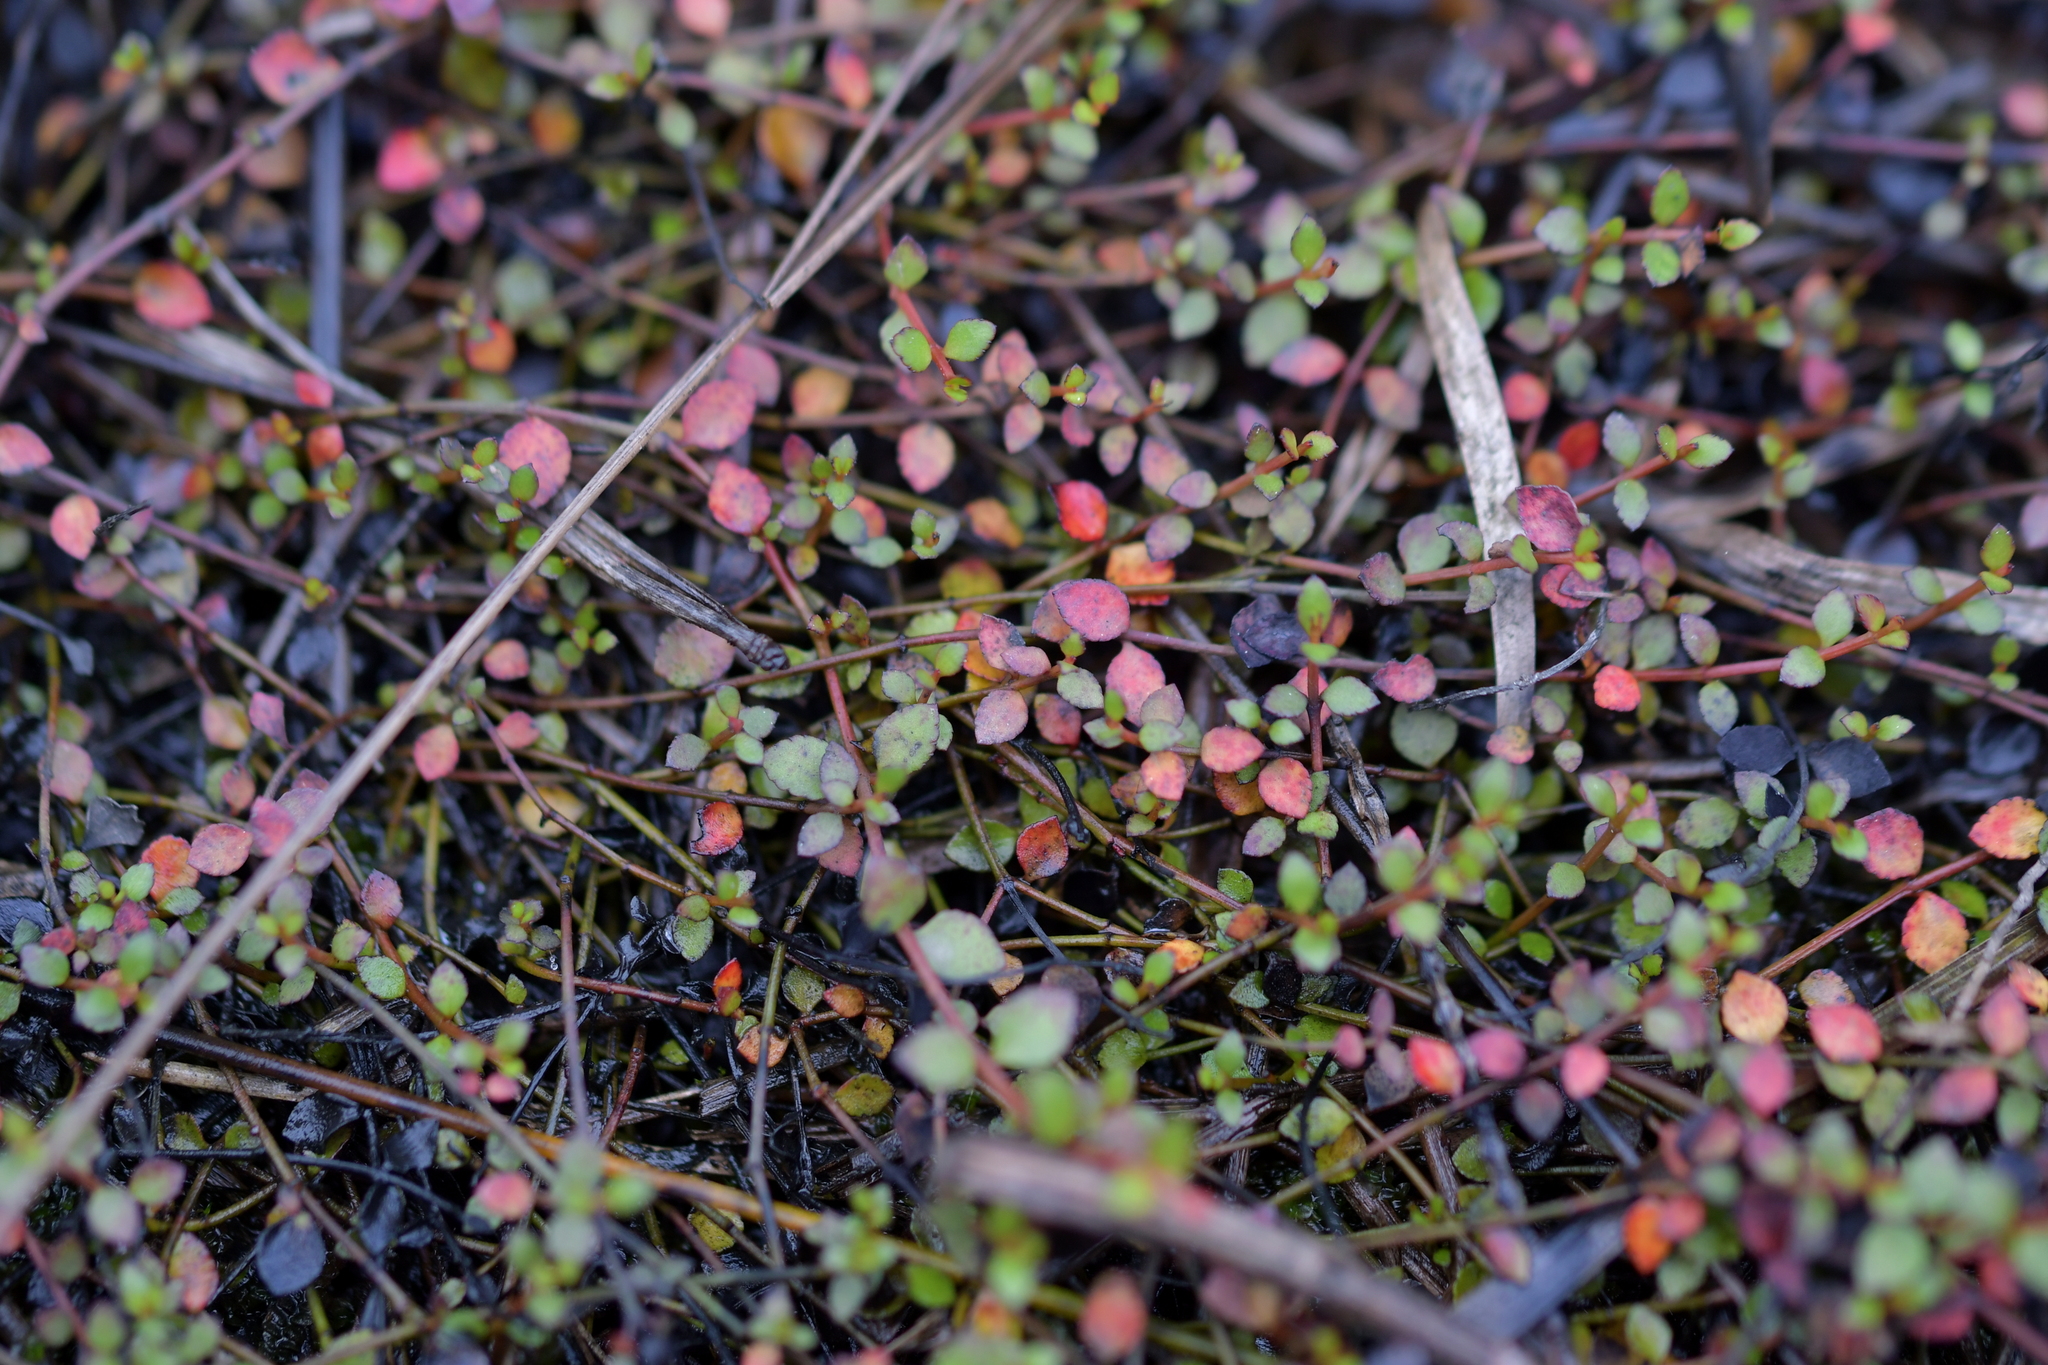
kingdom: Plantae
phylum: Tracheophyta
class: Magnoliopsida
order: Saxifragales
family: Haloragaceae
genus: Gonocarpus
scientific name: Gonocarpus micranthus
